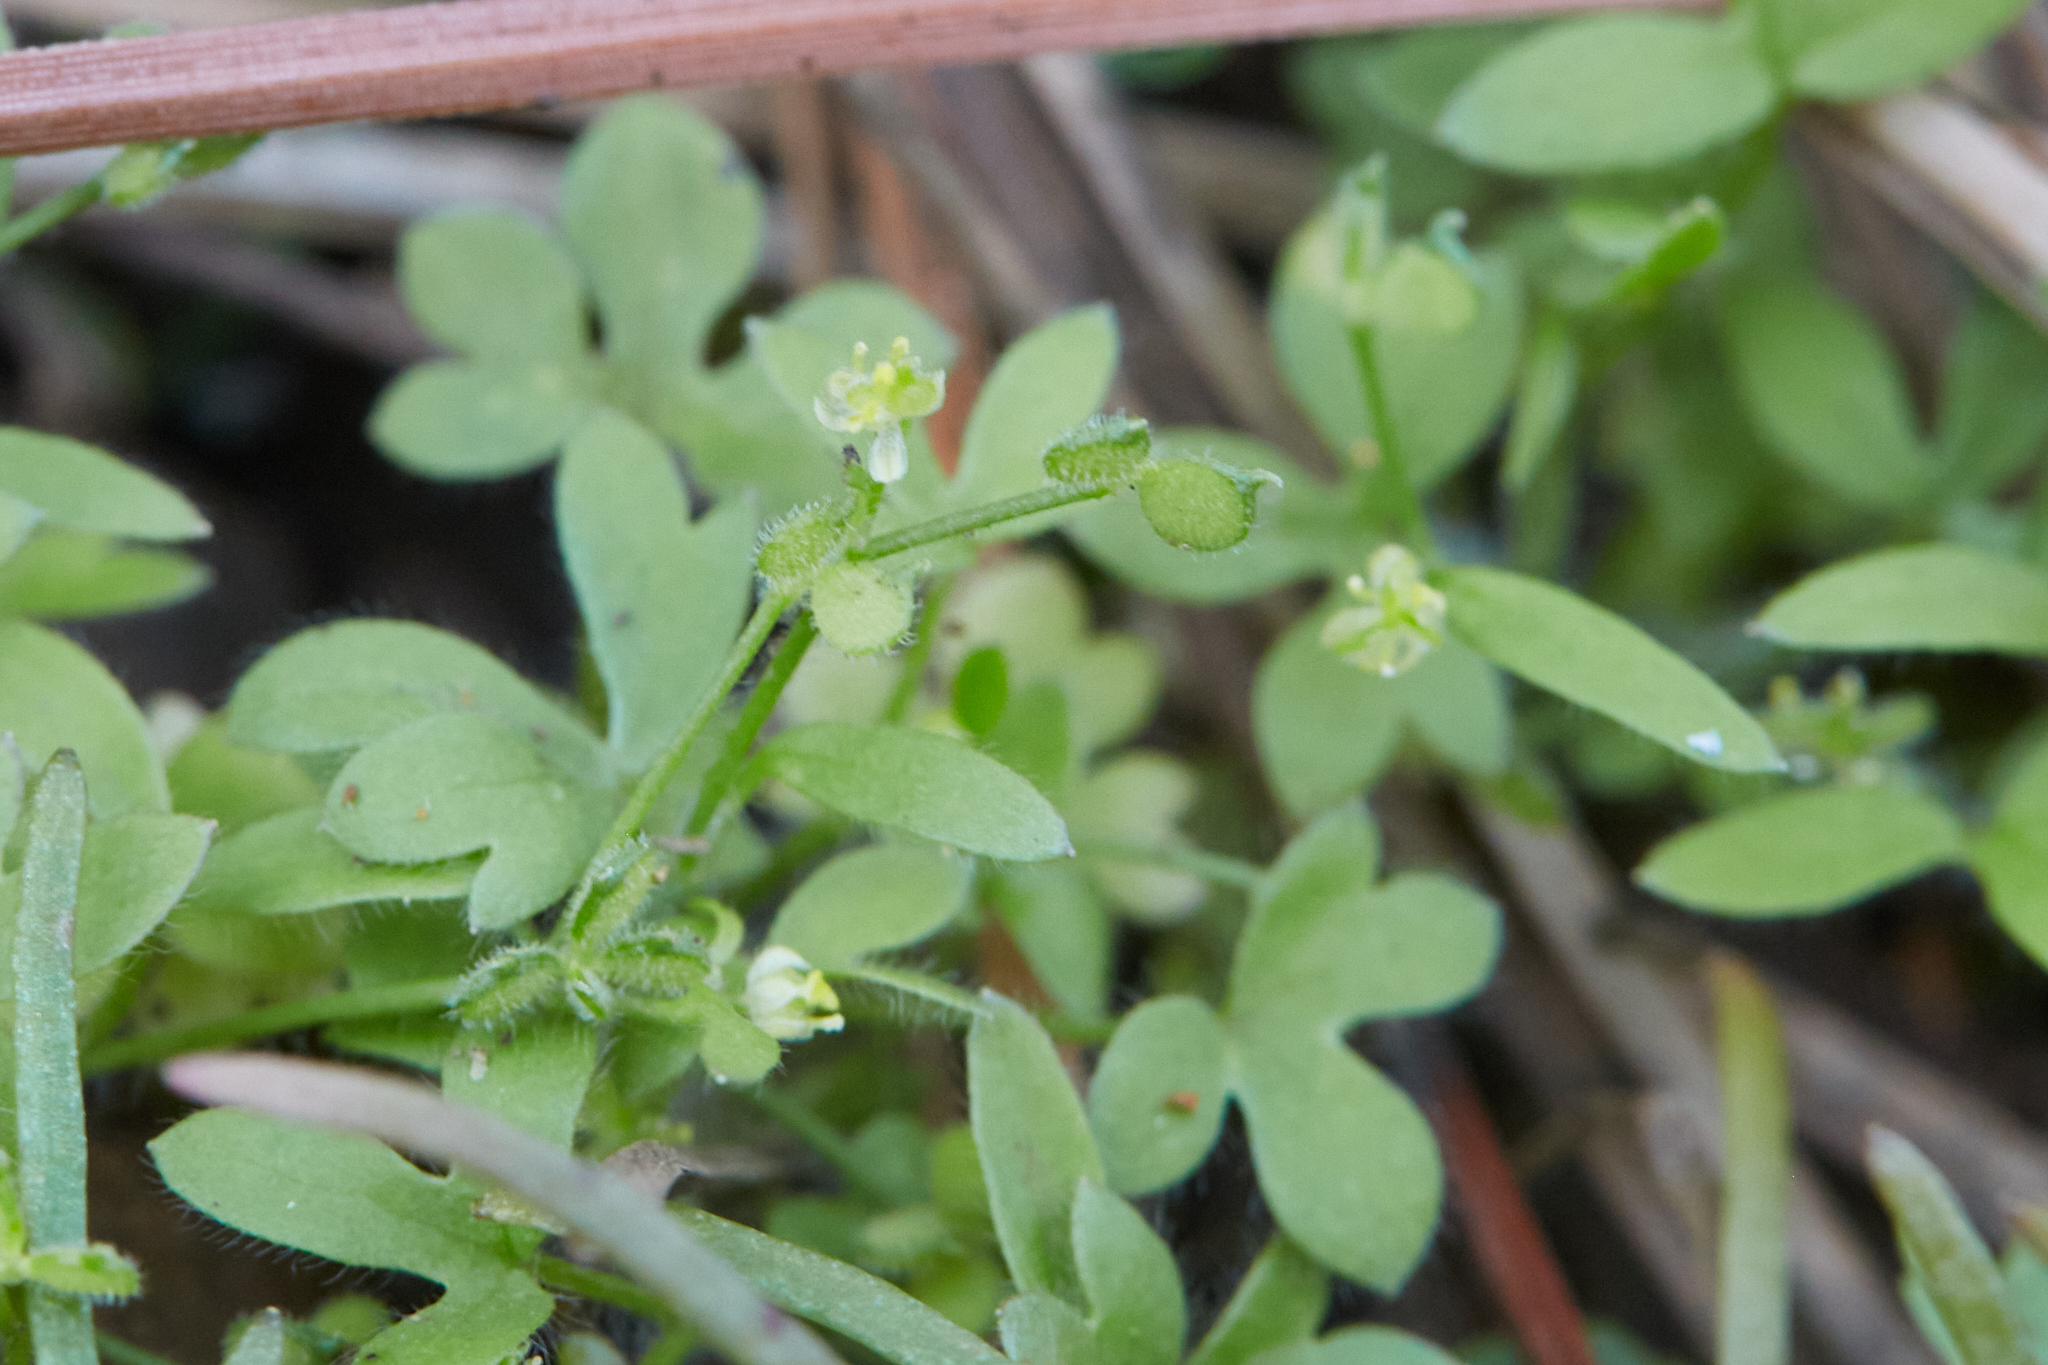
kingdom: Plantae
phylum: Tracheophyta
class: Magnoliopsida
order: Ranunculales
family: Ranunculaceae
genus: Ranunculus
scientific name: Ranunculus hebecarpus
